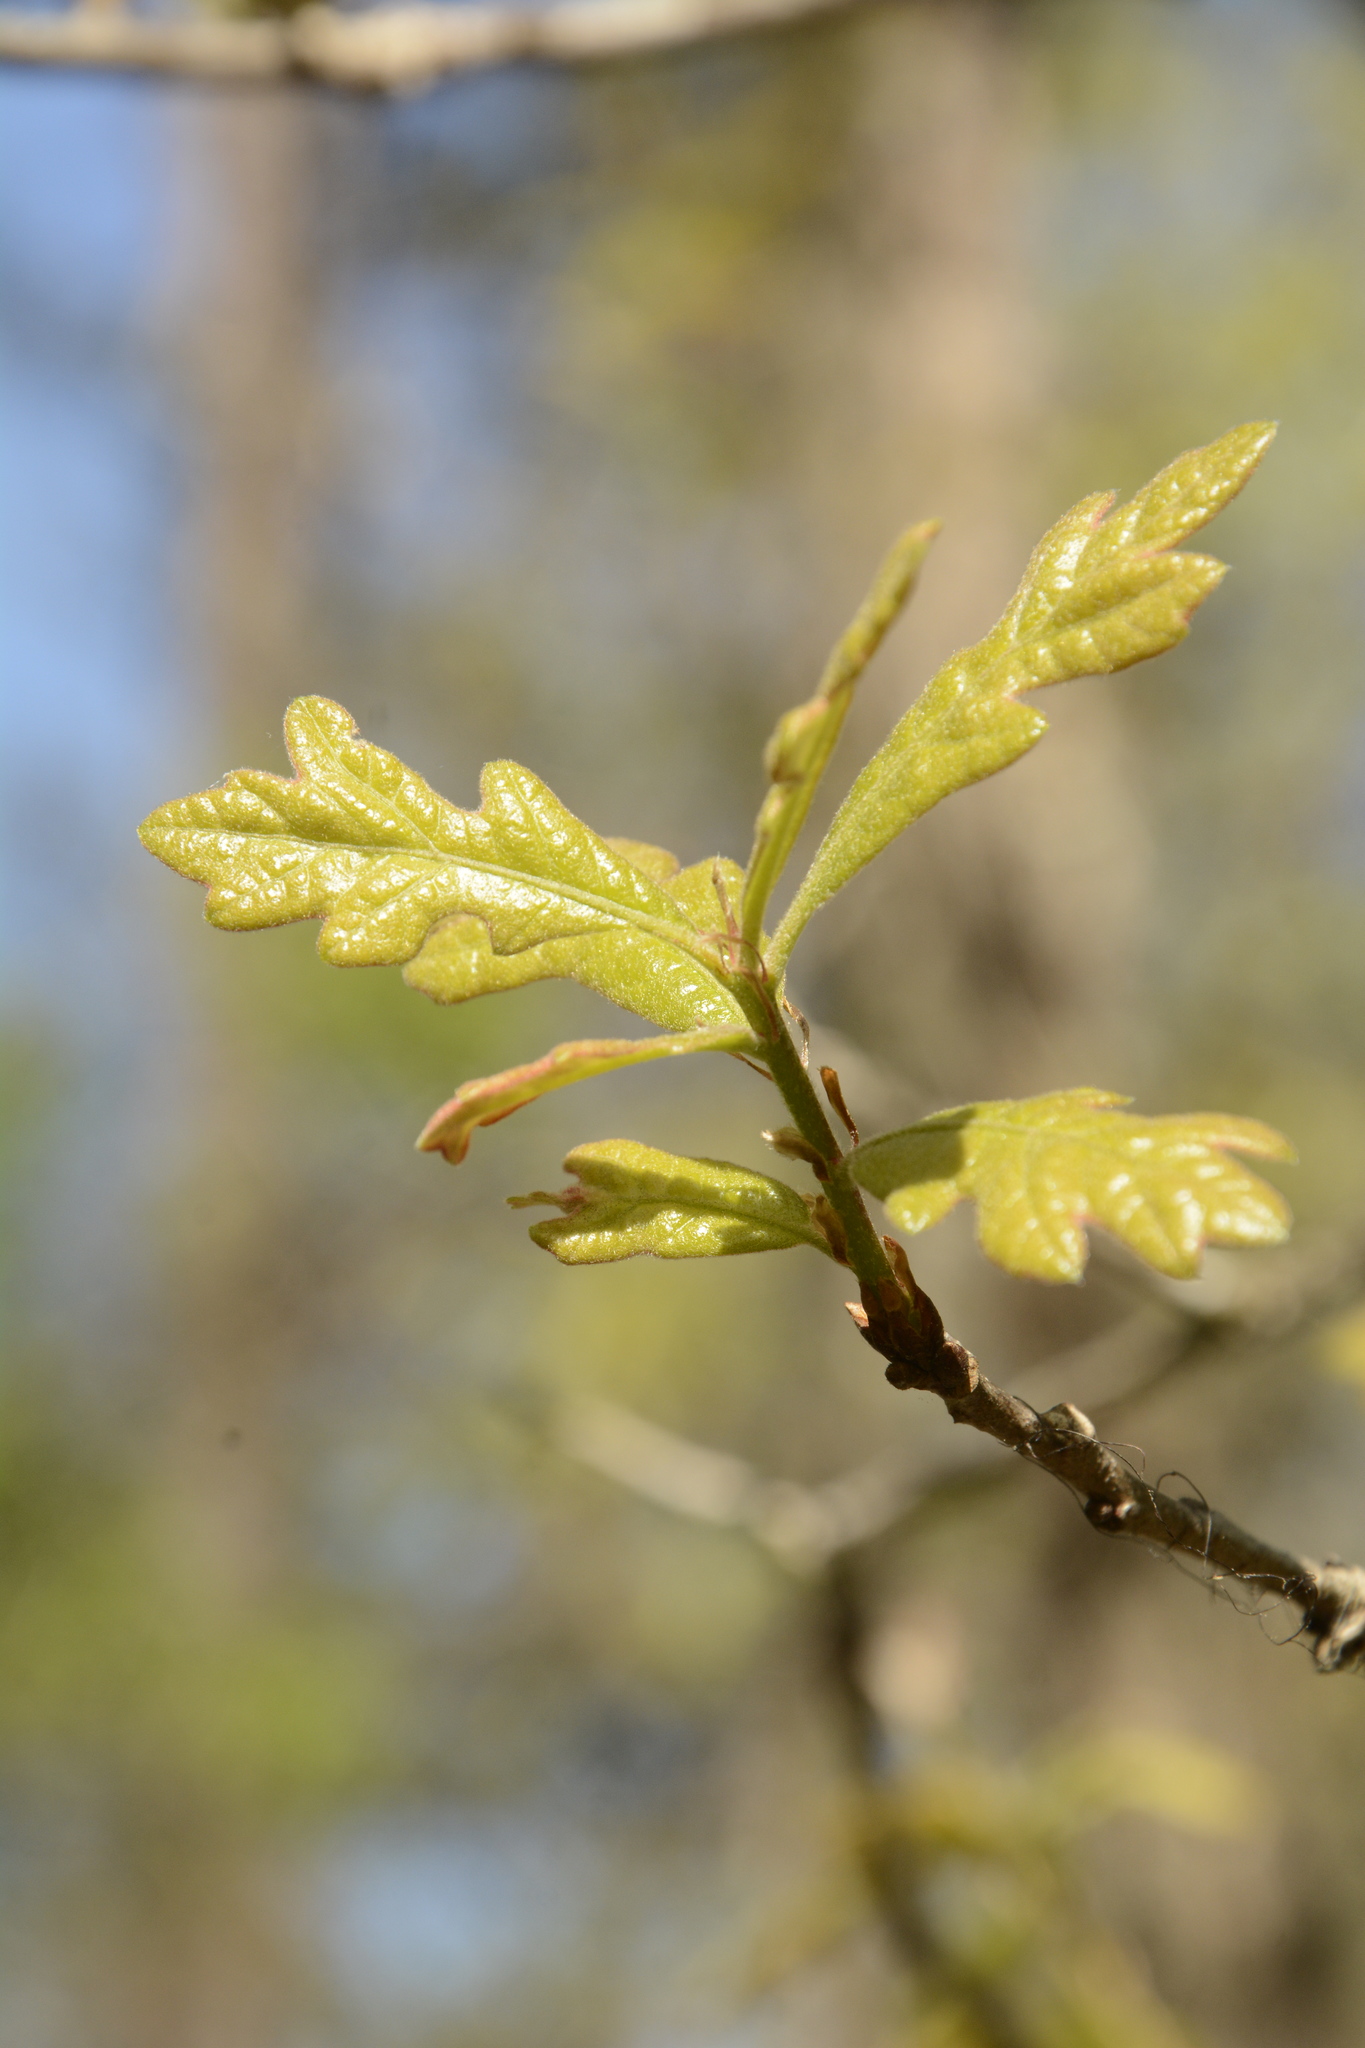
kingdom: Plantae
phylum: Tracheophyta
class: Magnoliopsida
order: Fagales
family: Fagaceae
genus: Quercus
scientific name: Quercus margaretiae
